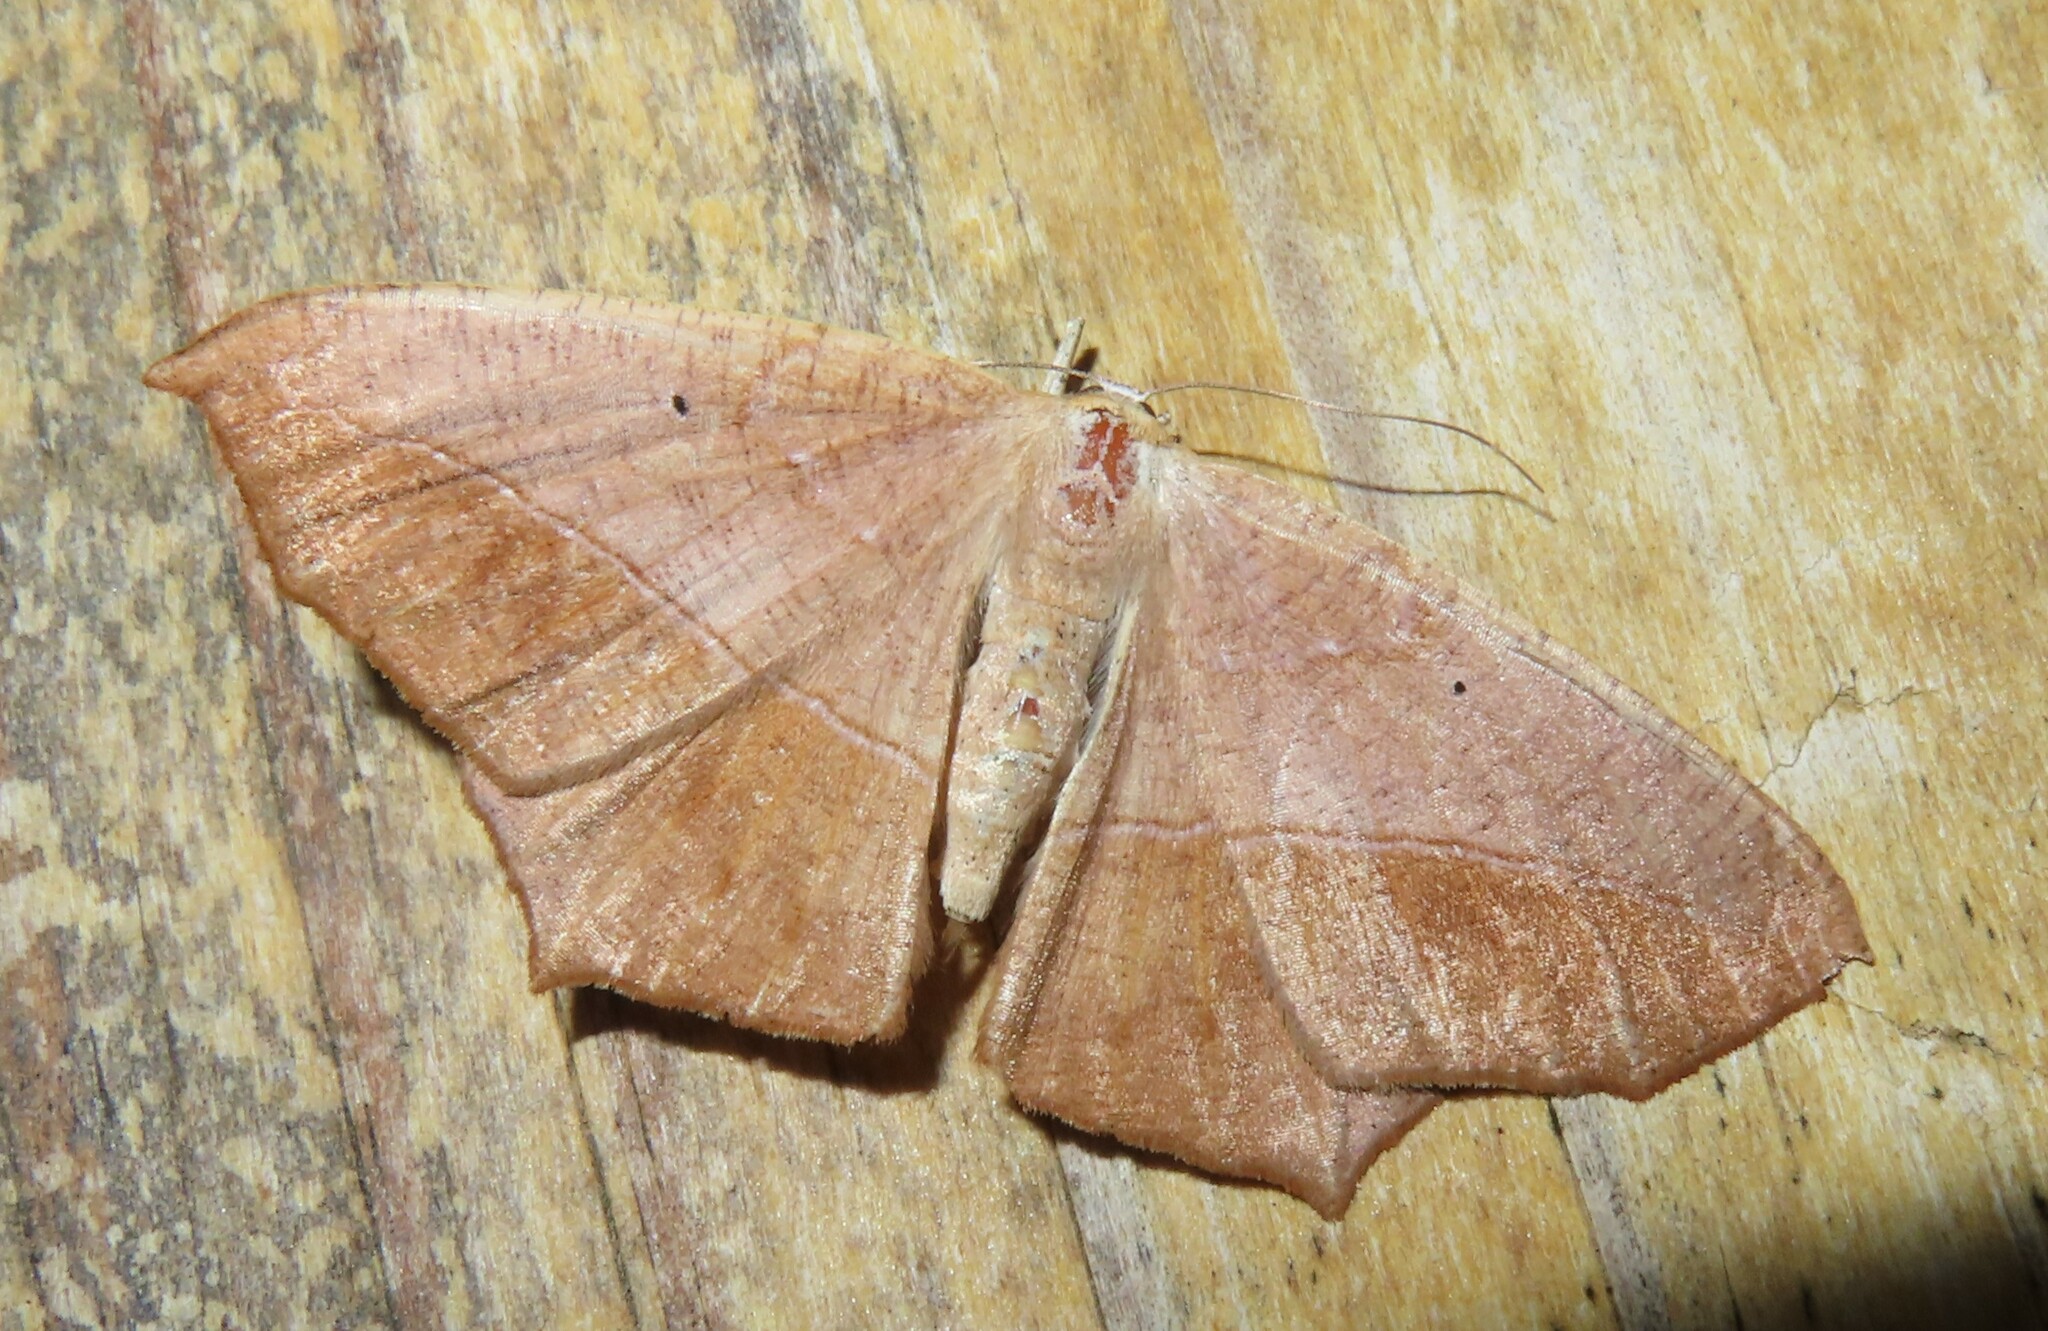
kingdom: Animalia
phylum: Arthropoda
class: Insecta
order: Lepidoptera
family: Geometridae
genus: Prochoerodes
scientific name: Prochoerodes lineola
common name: Large maple spanworm
